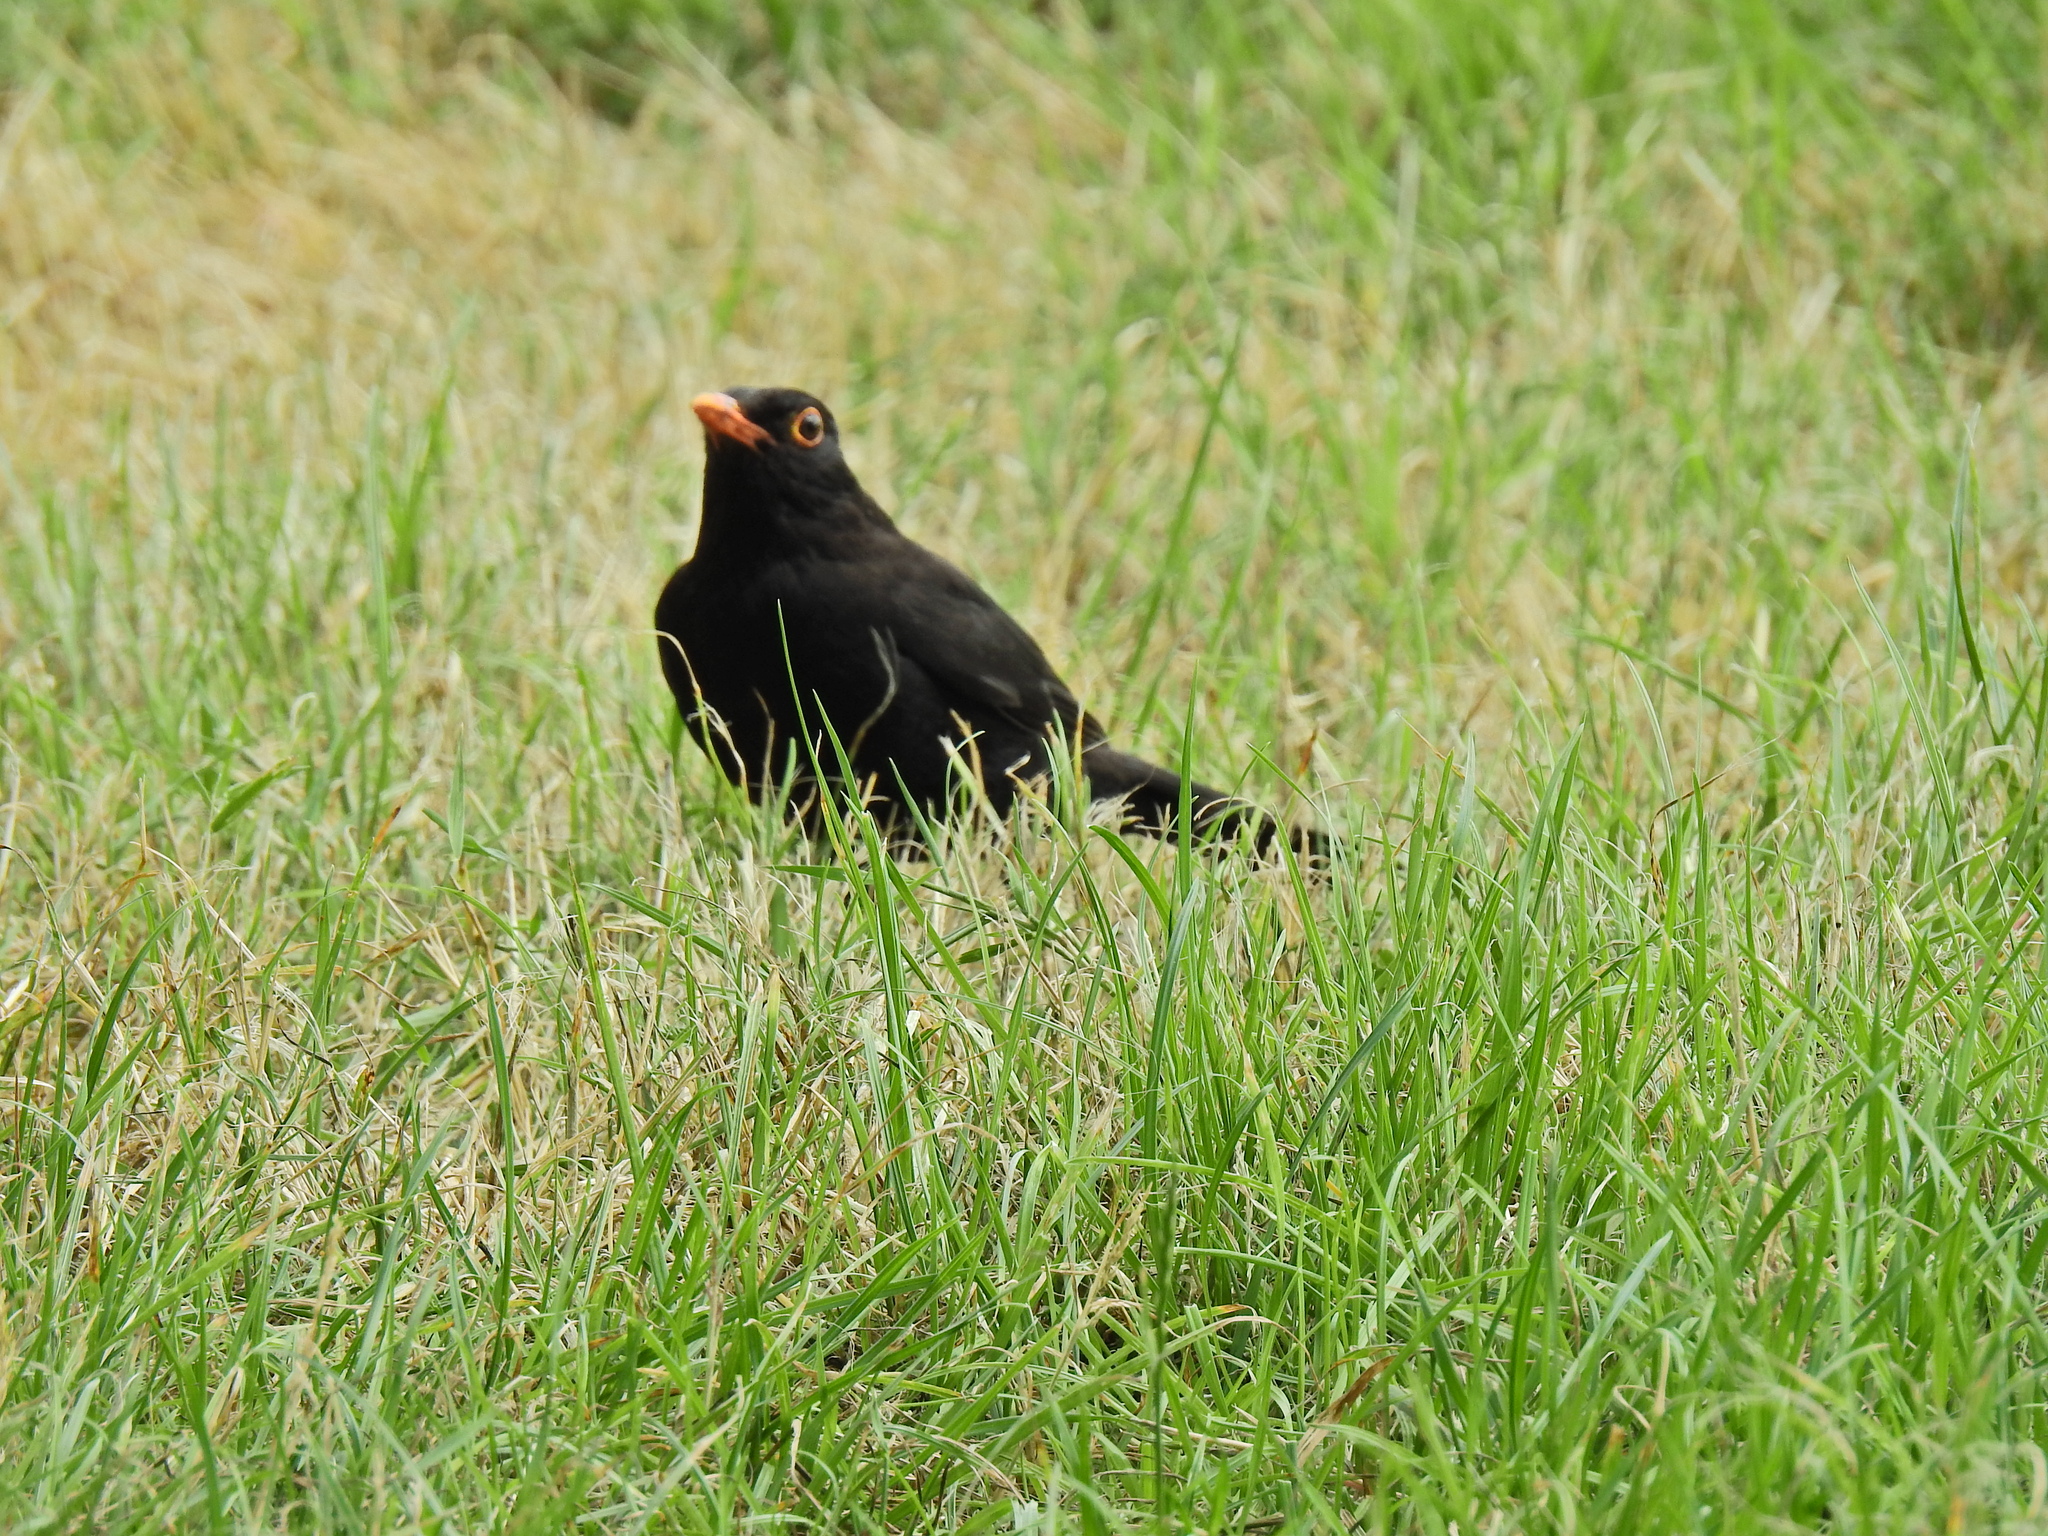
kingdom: Animalia
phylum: Chordata
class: Aves
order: Passeriformes
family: Turdidae
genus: Turdus
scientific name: Turdus merula
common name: Common blackbird
